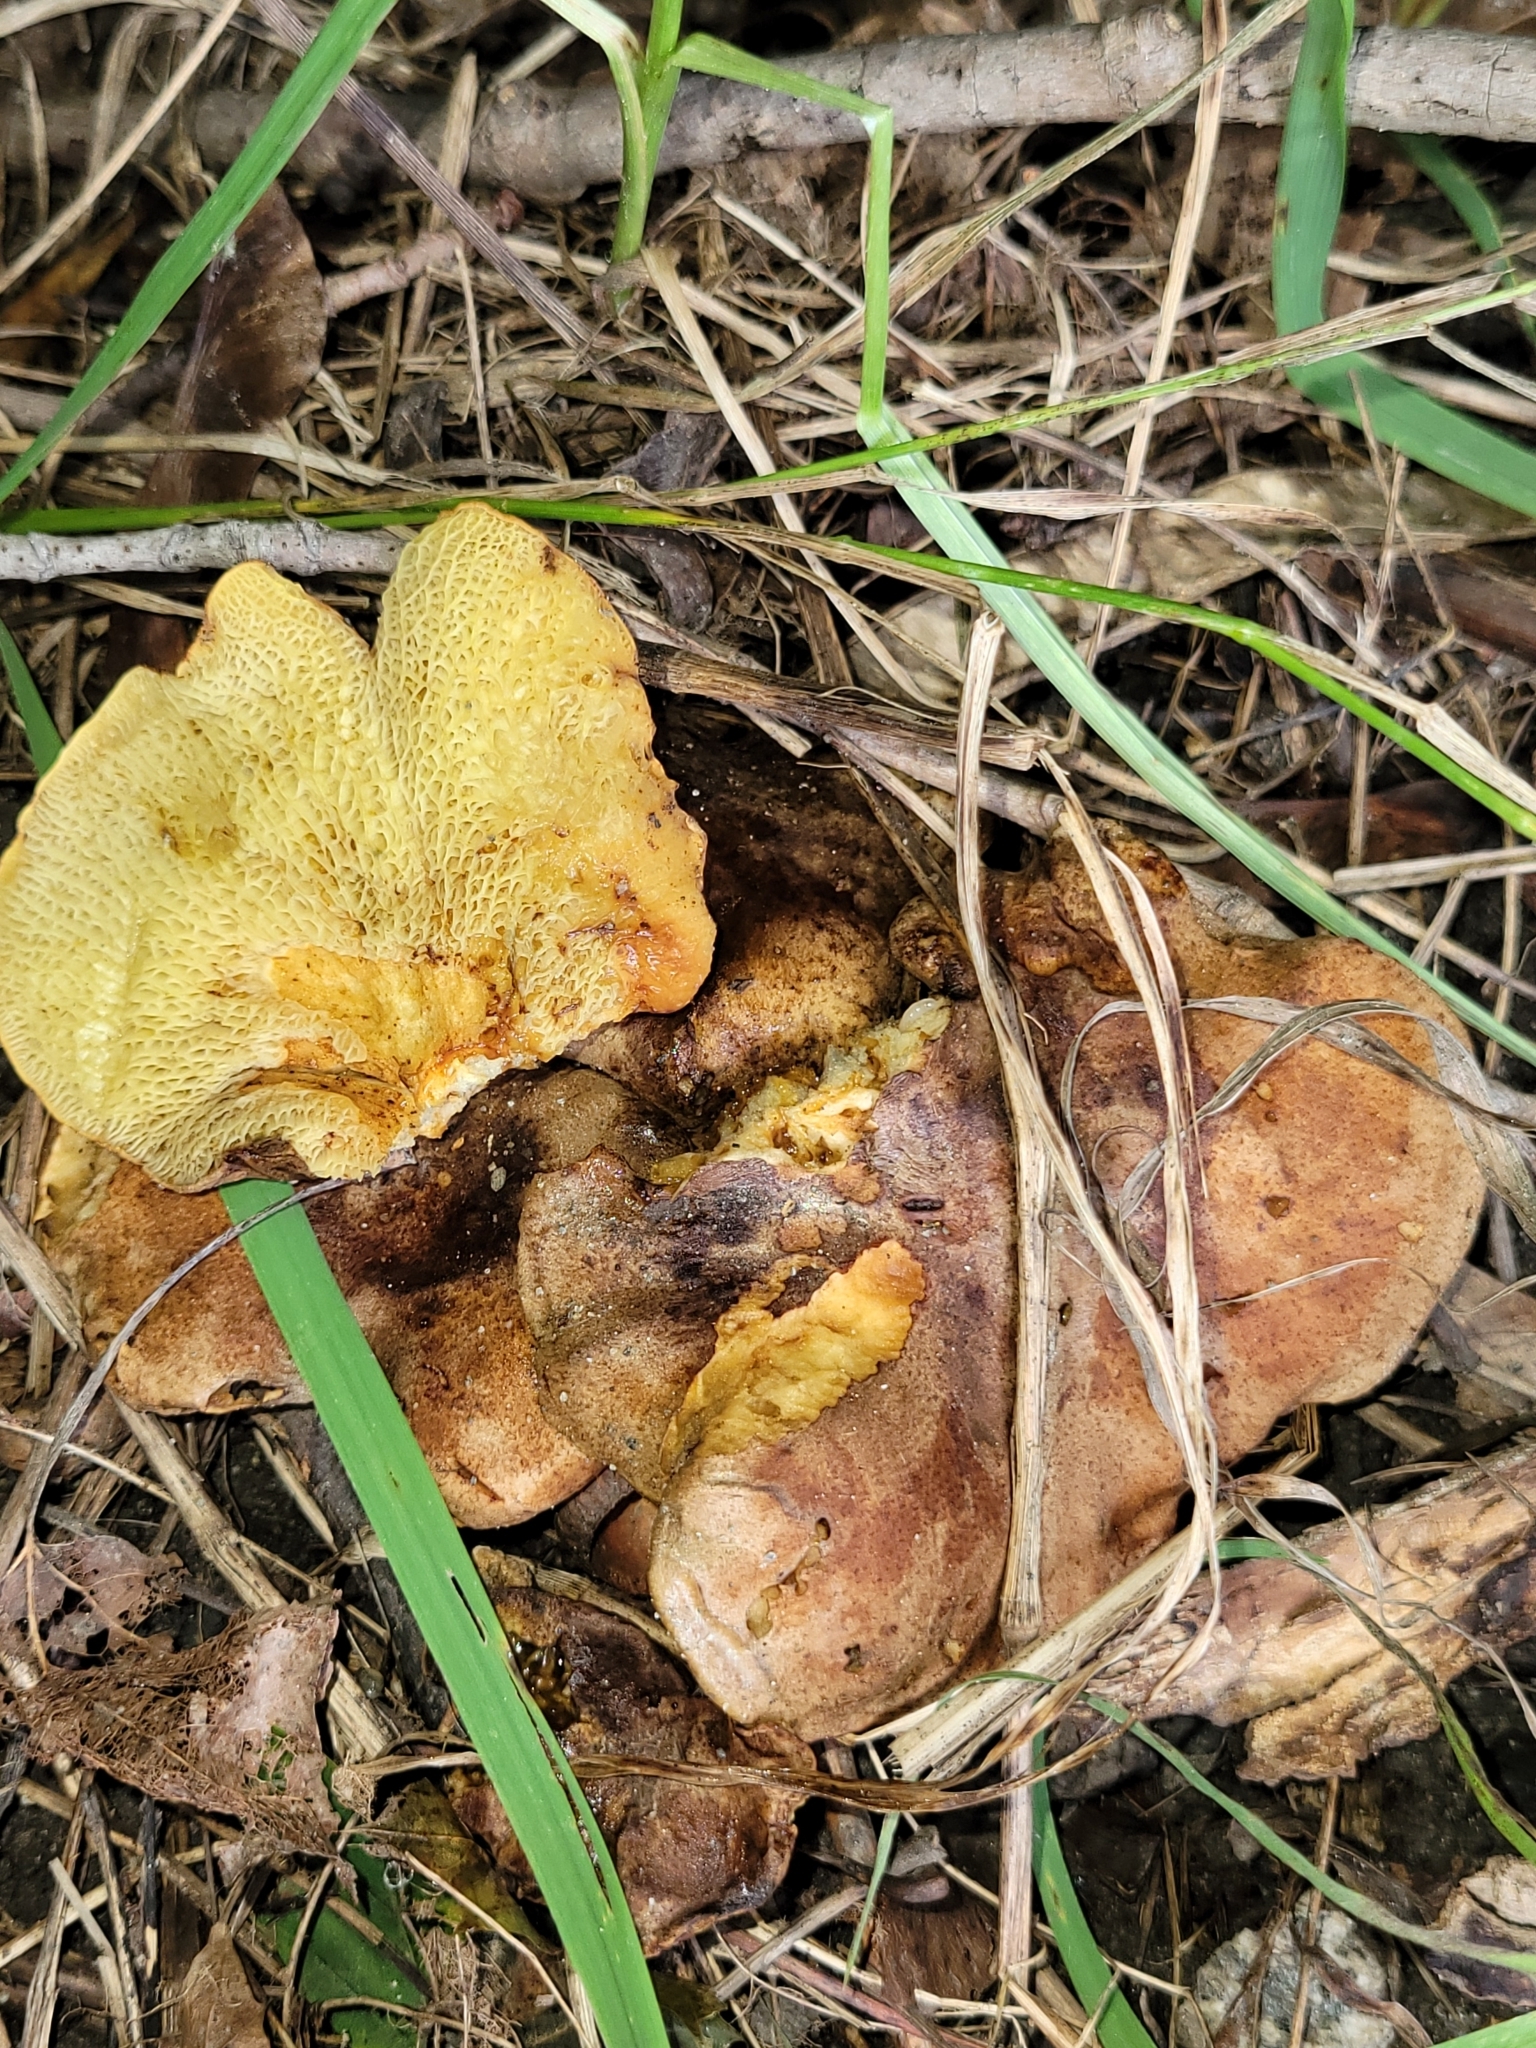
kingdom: Fungi
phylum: Basidiomycota
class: Agaricomycetes
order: Boletales
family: Boletinellaceae
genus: Boletinellus
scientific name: Boletinellus merulioides
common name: Ash tree bolete
